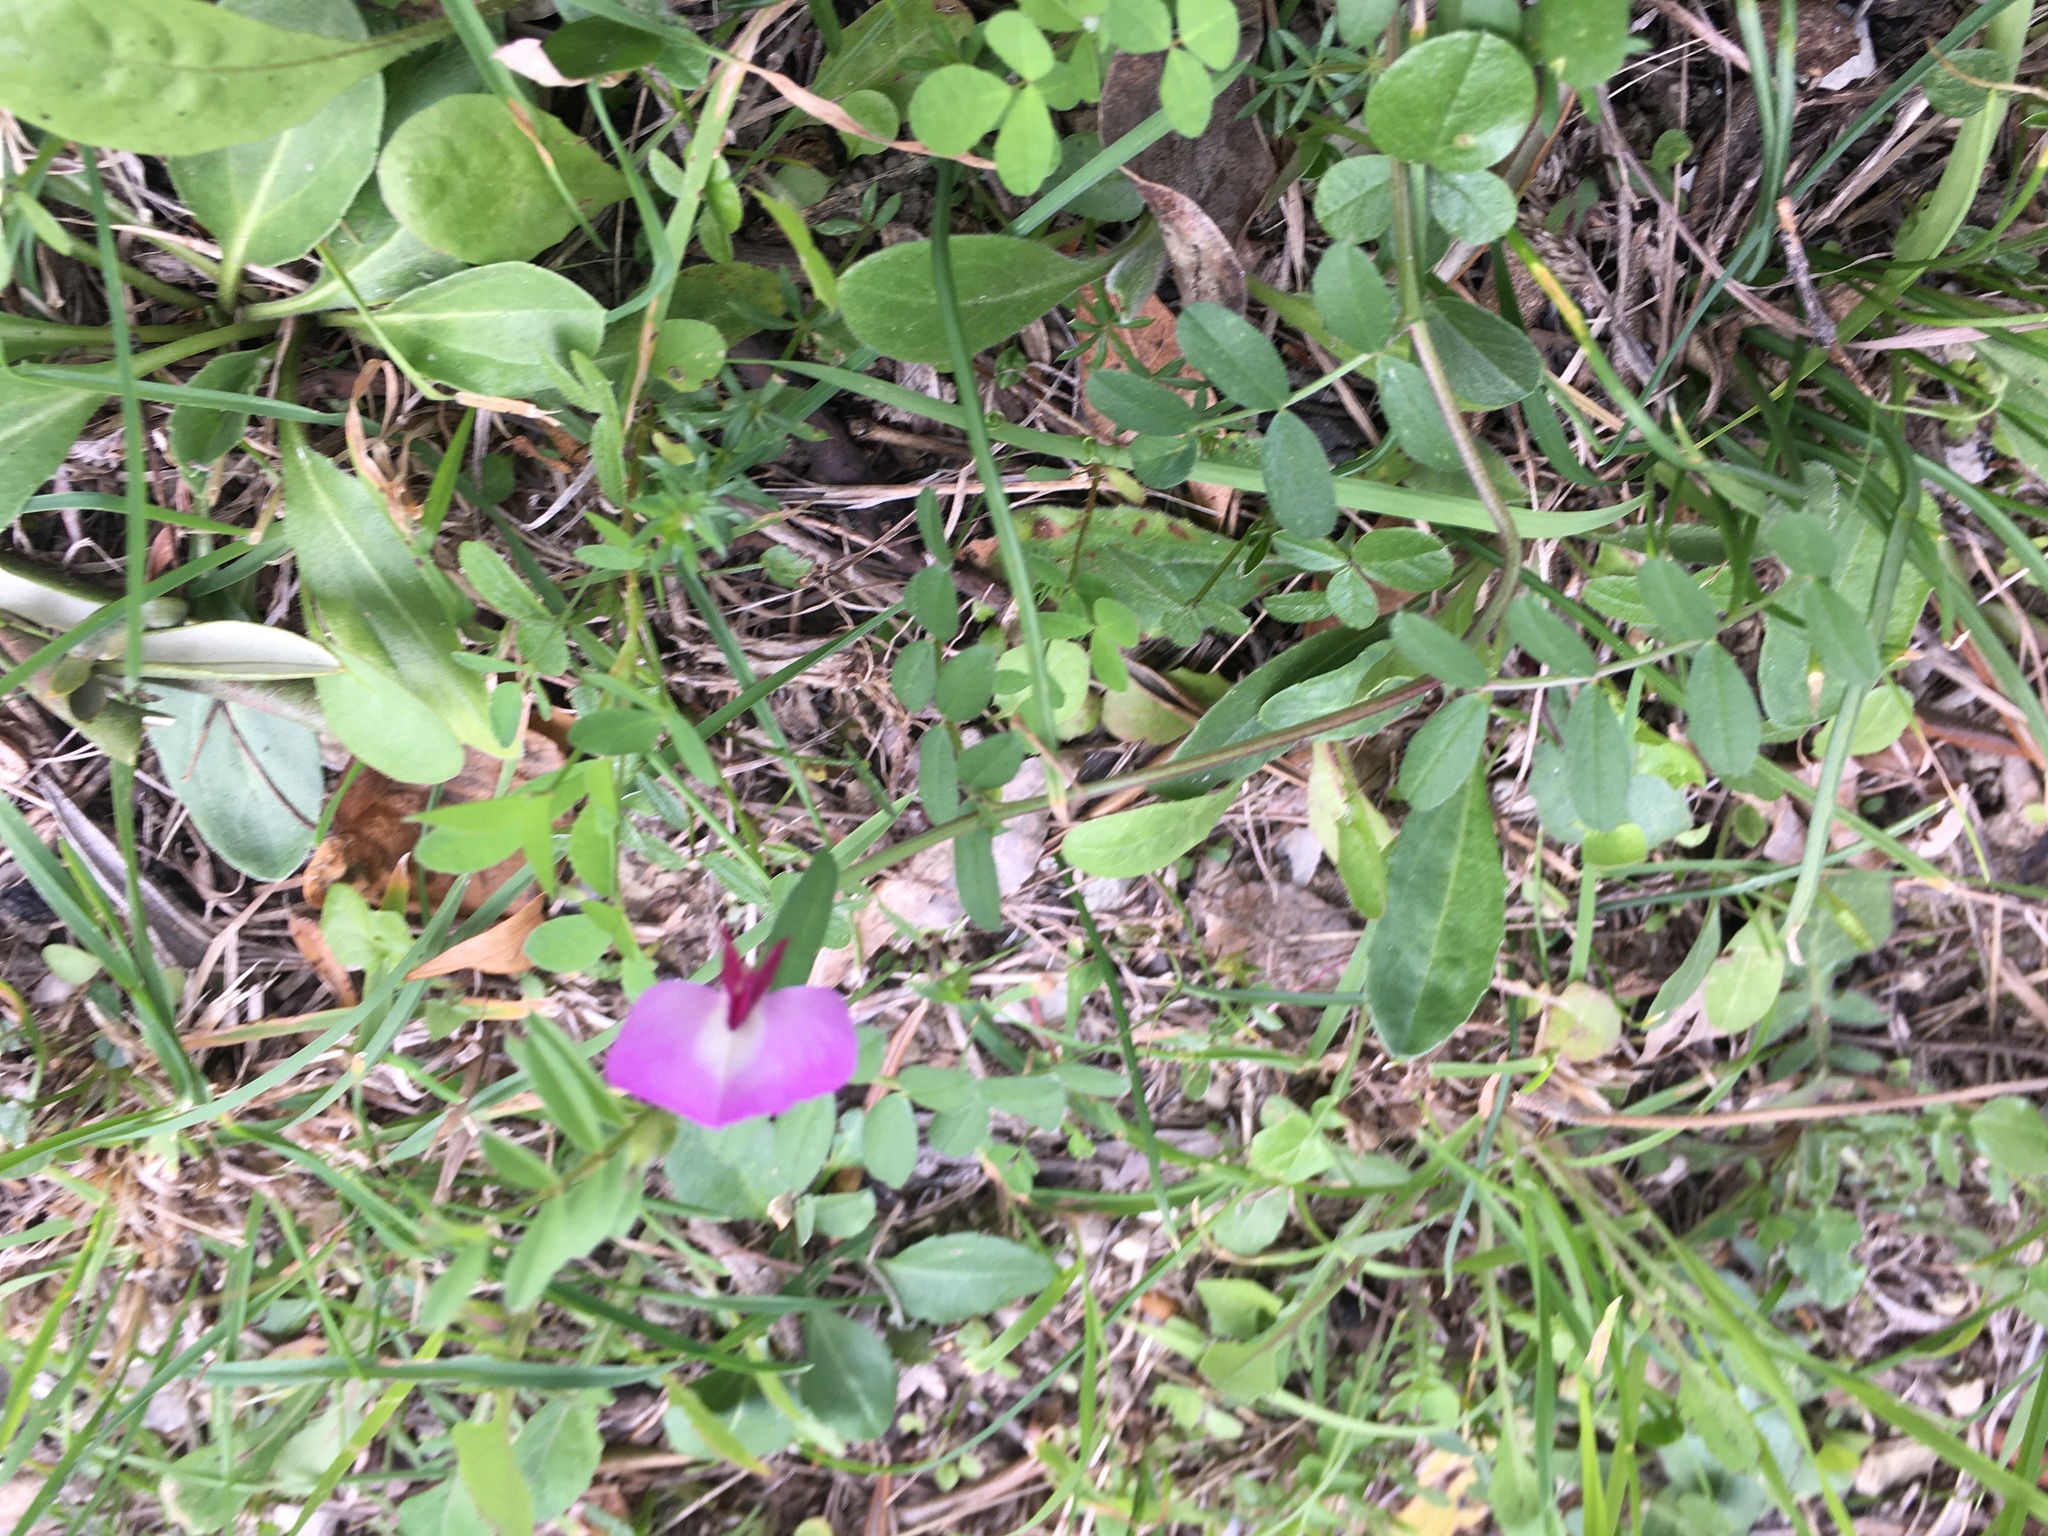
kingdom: Plantae
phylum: Tracheophyta
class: Magnoliopsida
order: Fabales
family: Fabaceae
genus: Vicia
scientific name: Vicia sativa
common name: Garden vetch
